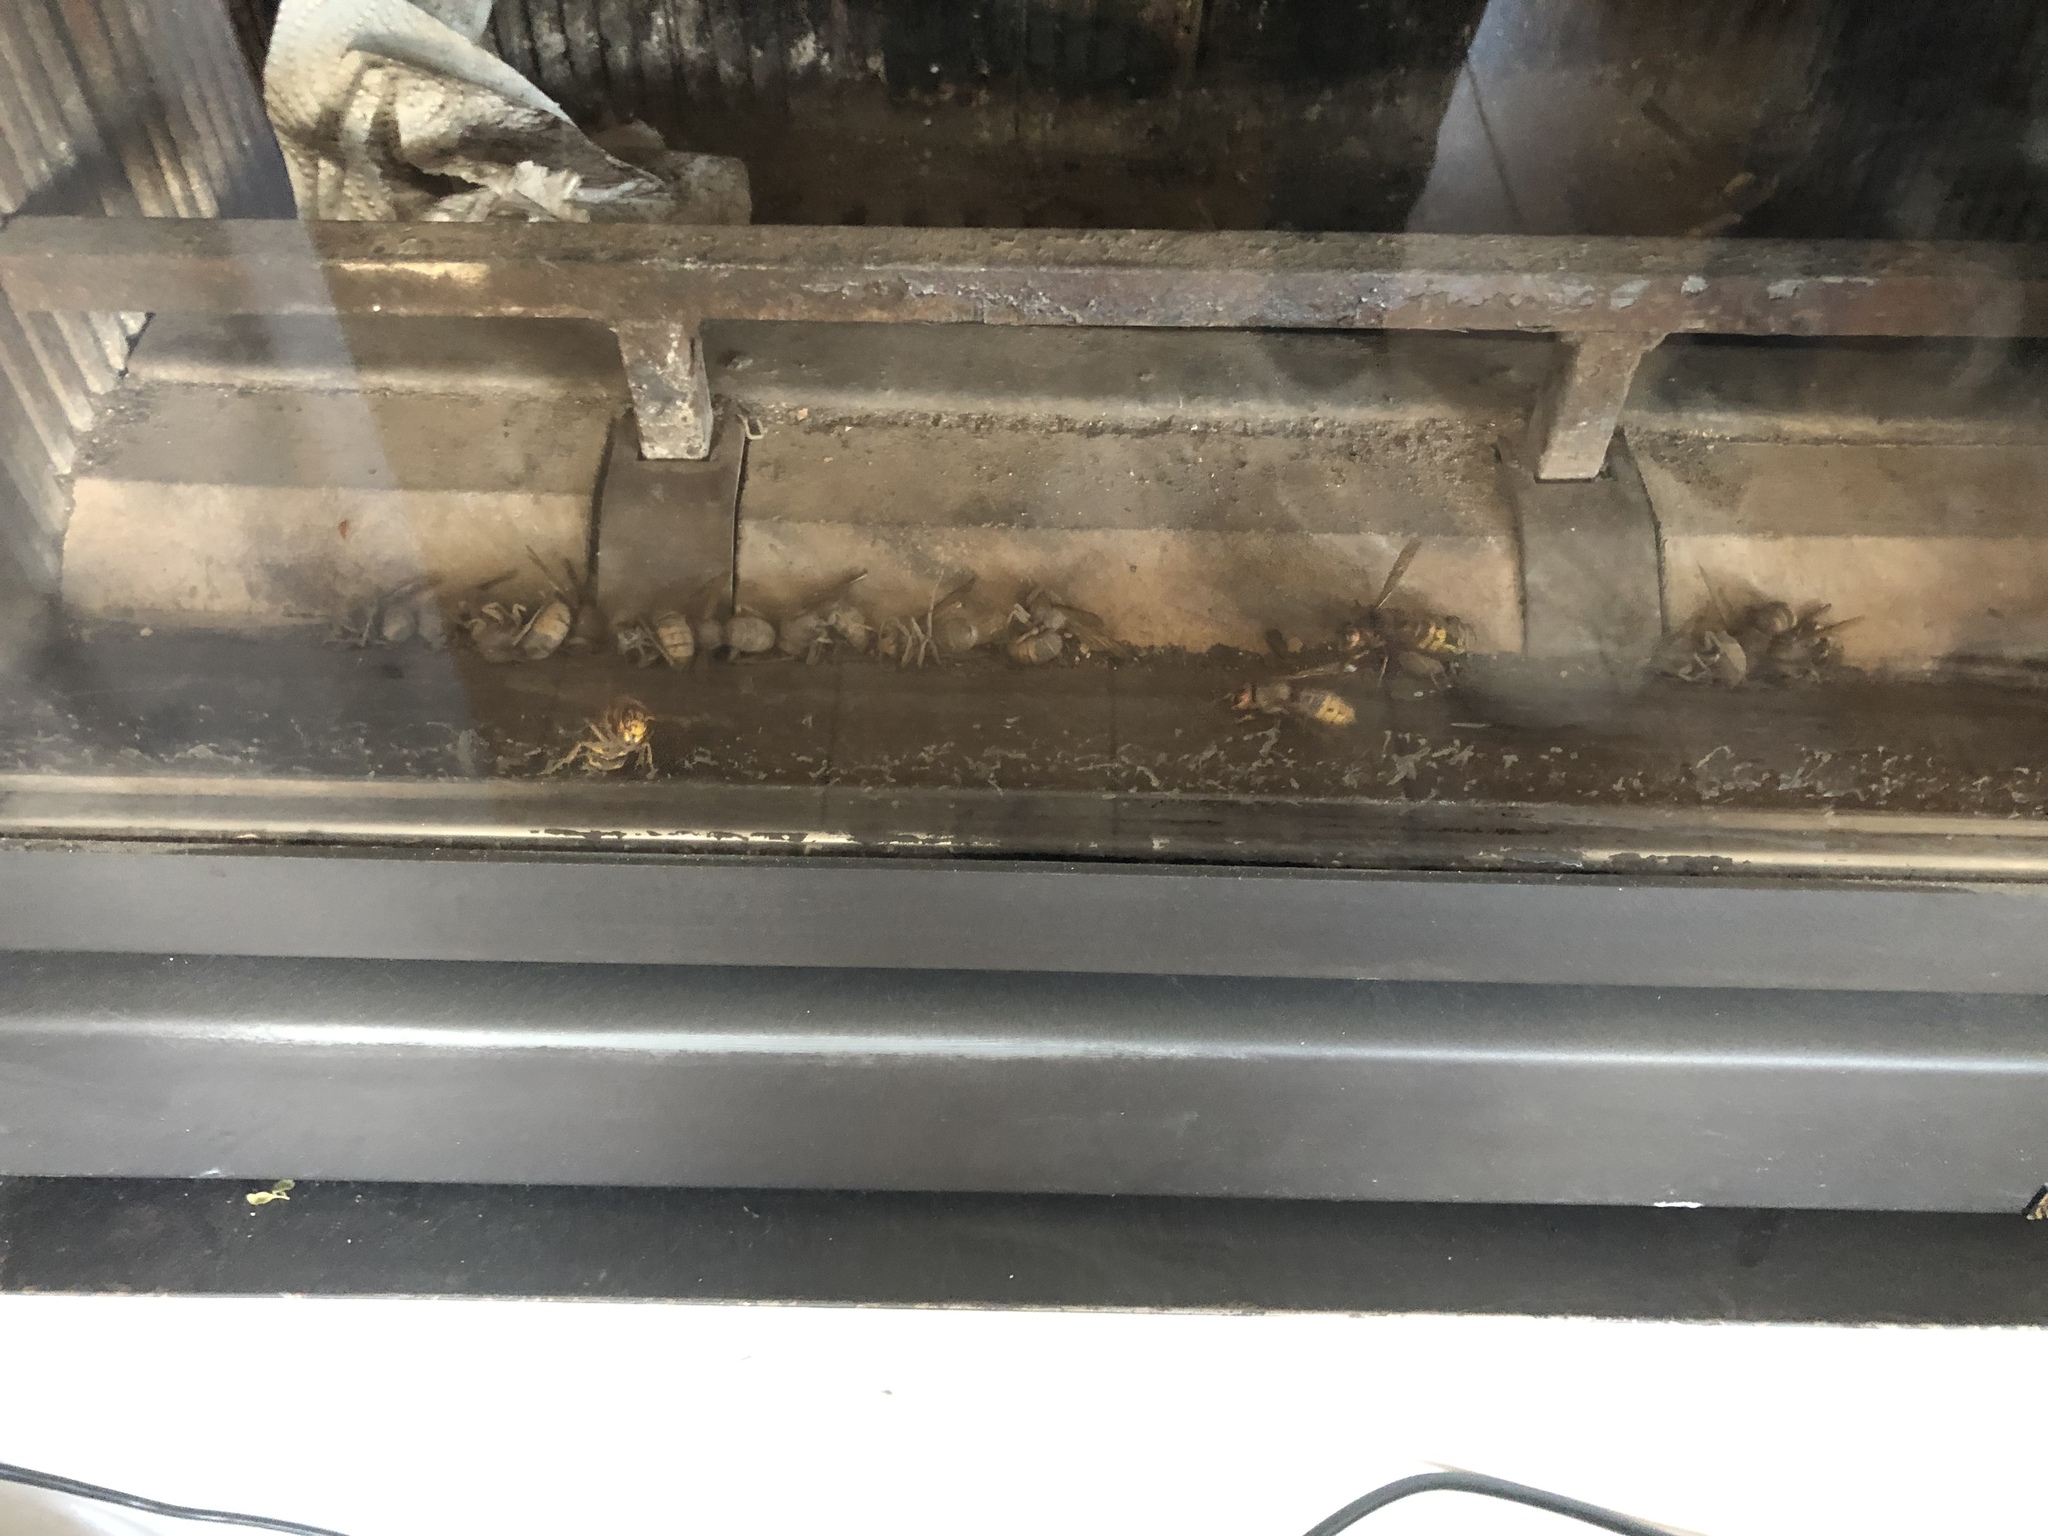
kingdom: Animalia
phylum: Arthropoda
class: Insecta
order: Hymenoptera
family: Vespidae
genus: Vespa
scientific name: Vespa crabro
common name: Hornet
